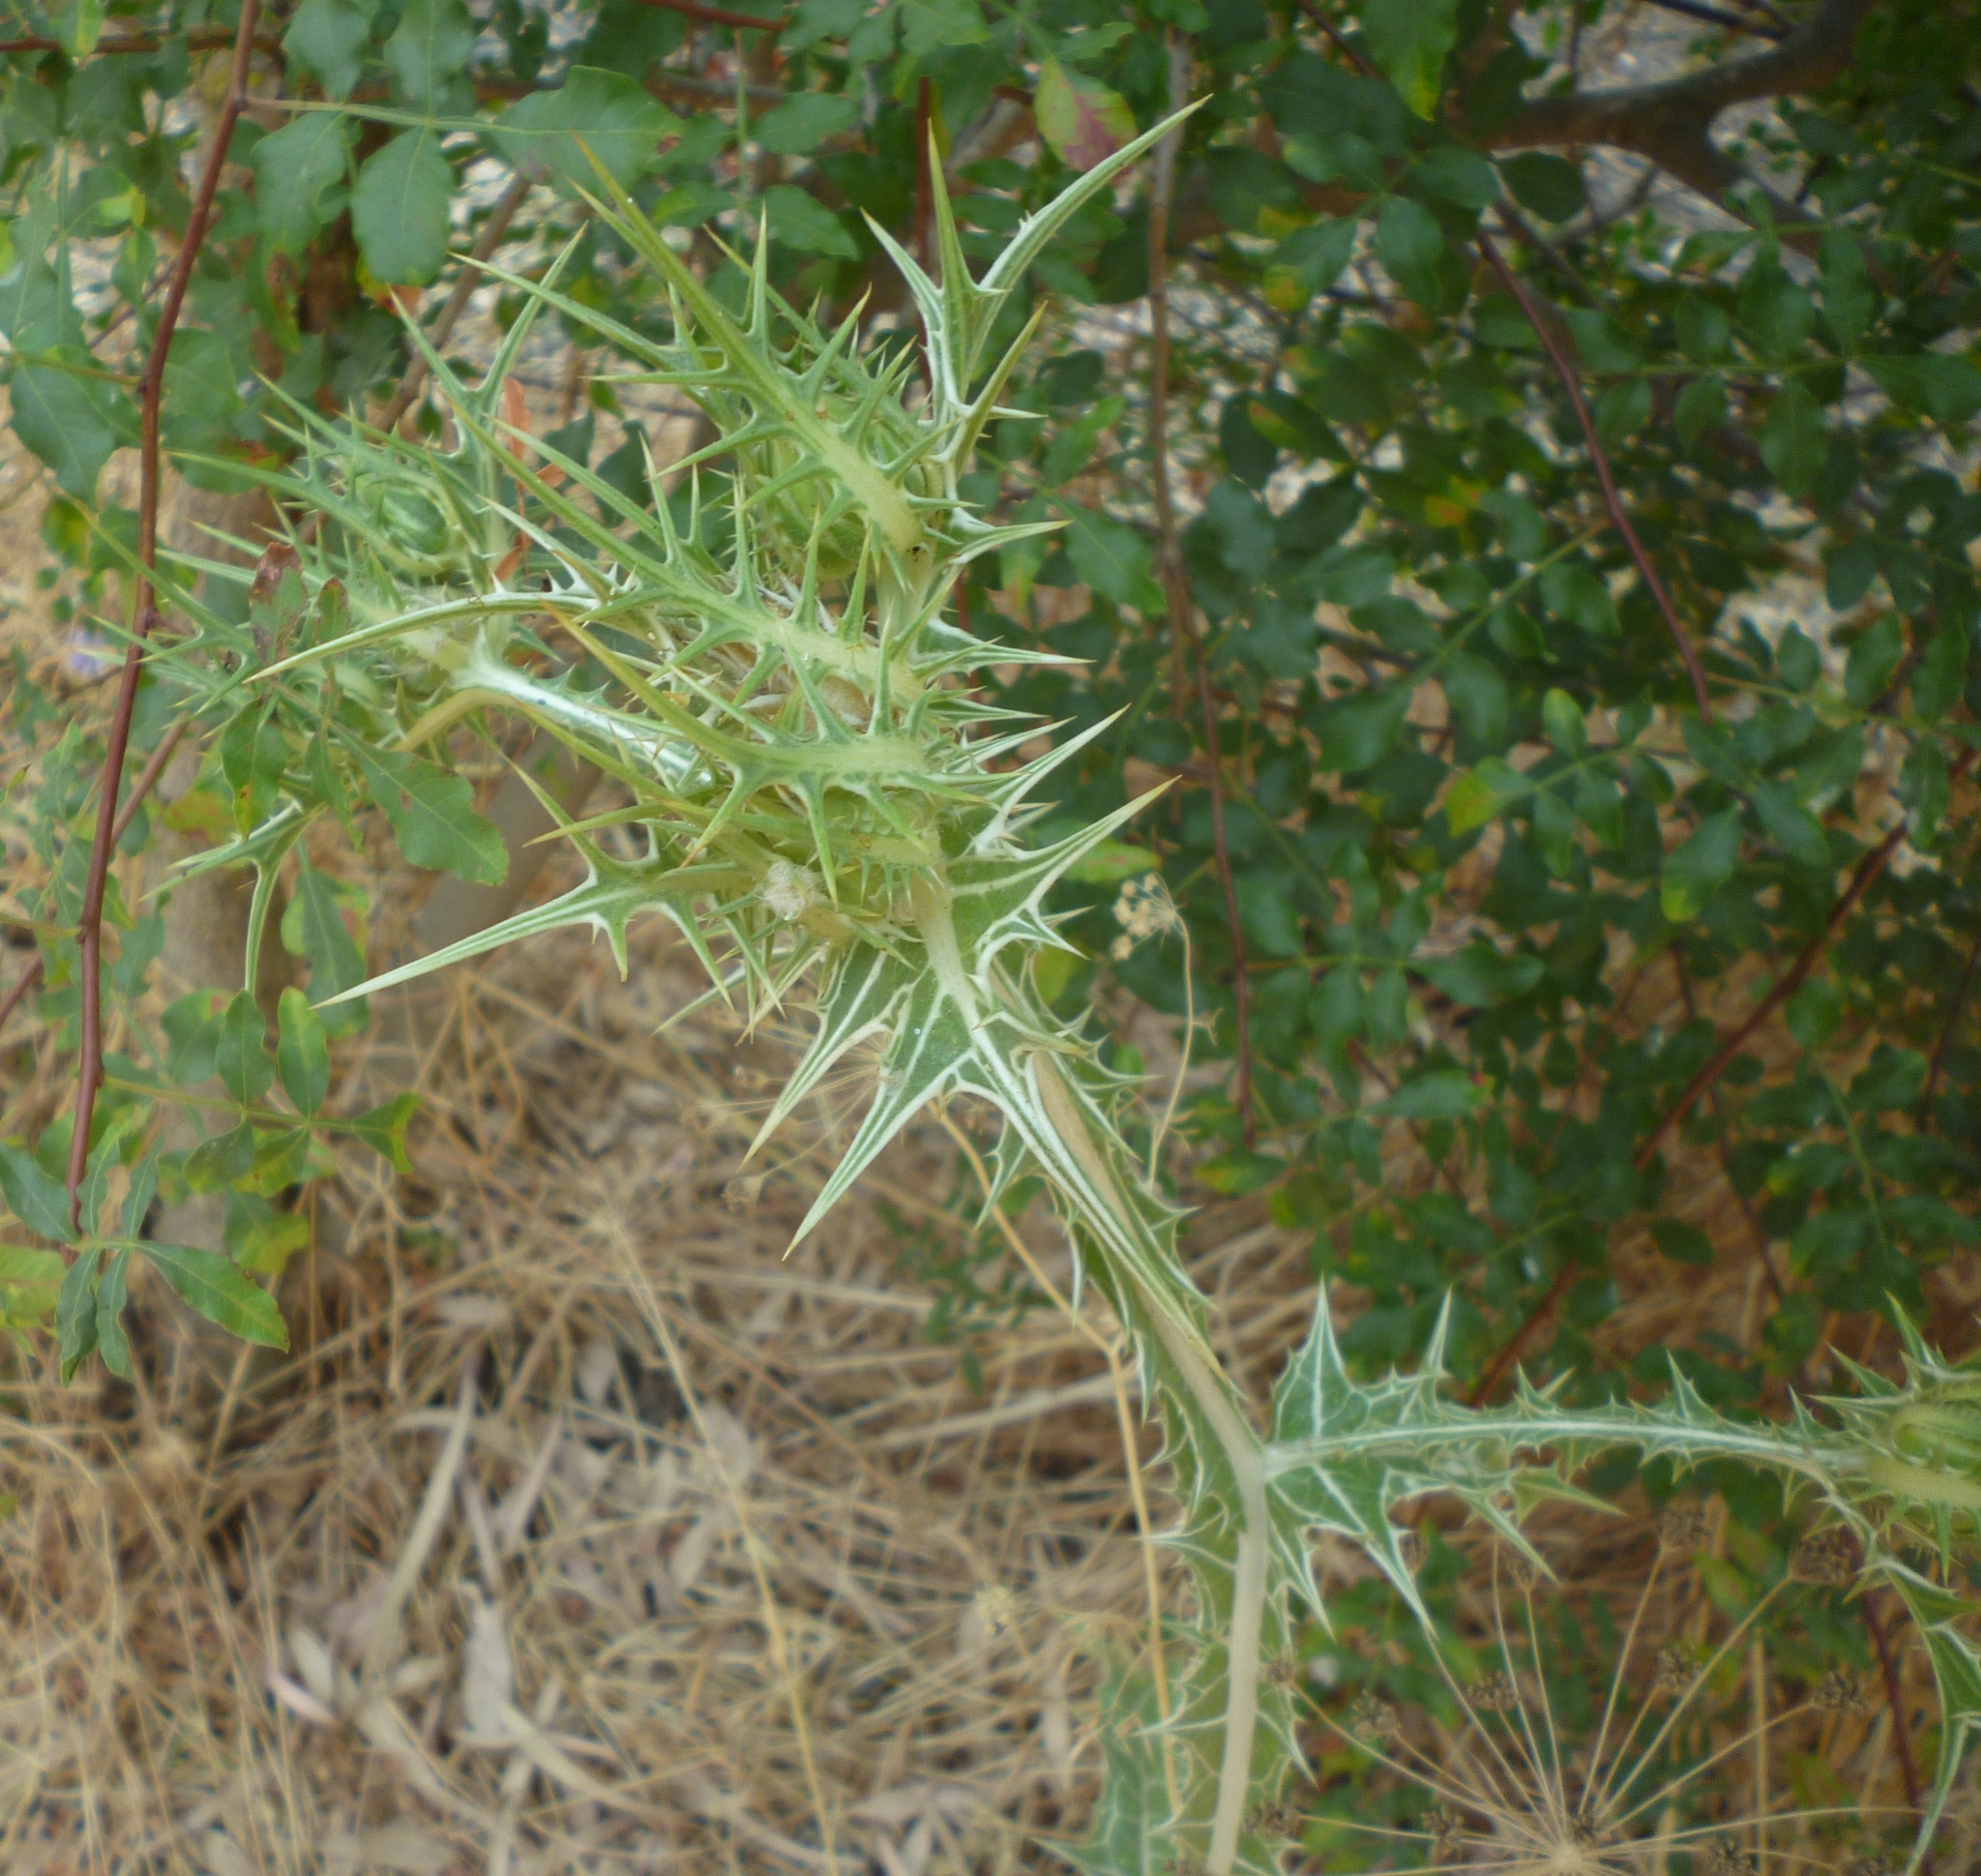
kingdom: Plantae
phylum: Tracheophyta
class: Magnoliopsida
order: Asterales
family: Asteraceae
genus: Scolymus
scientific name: Scolymus maculatus
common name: Spotted thistle
